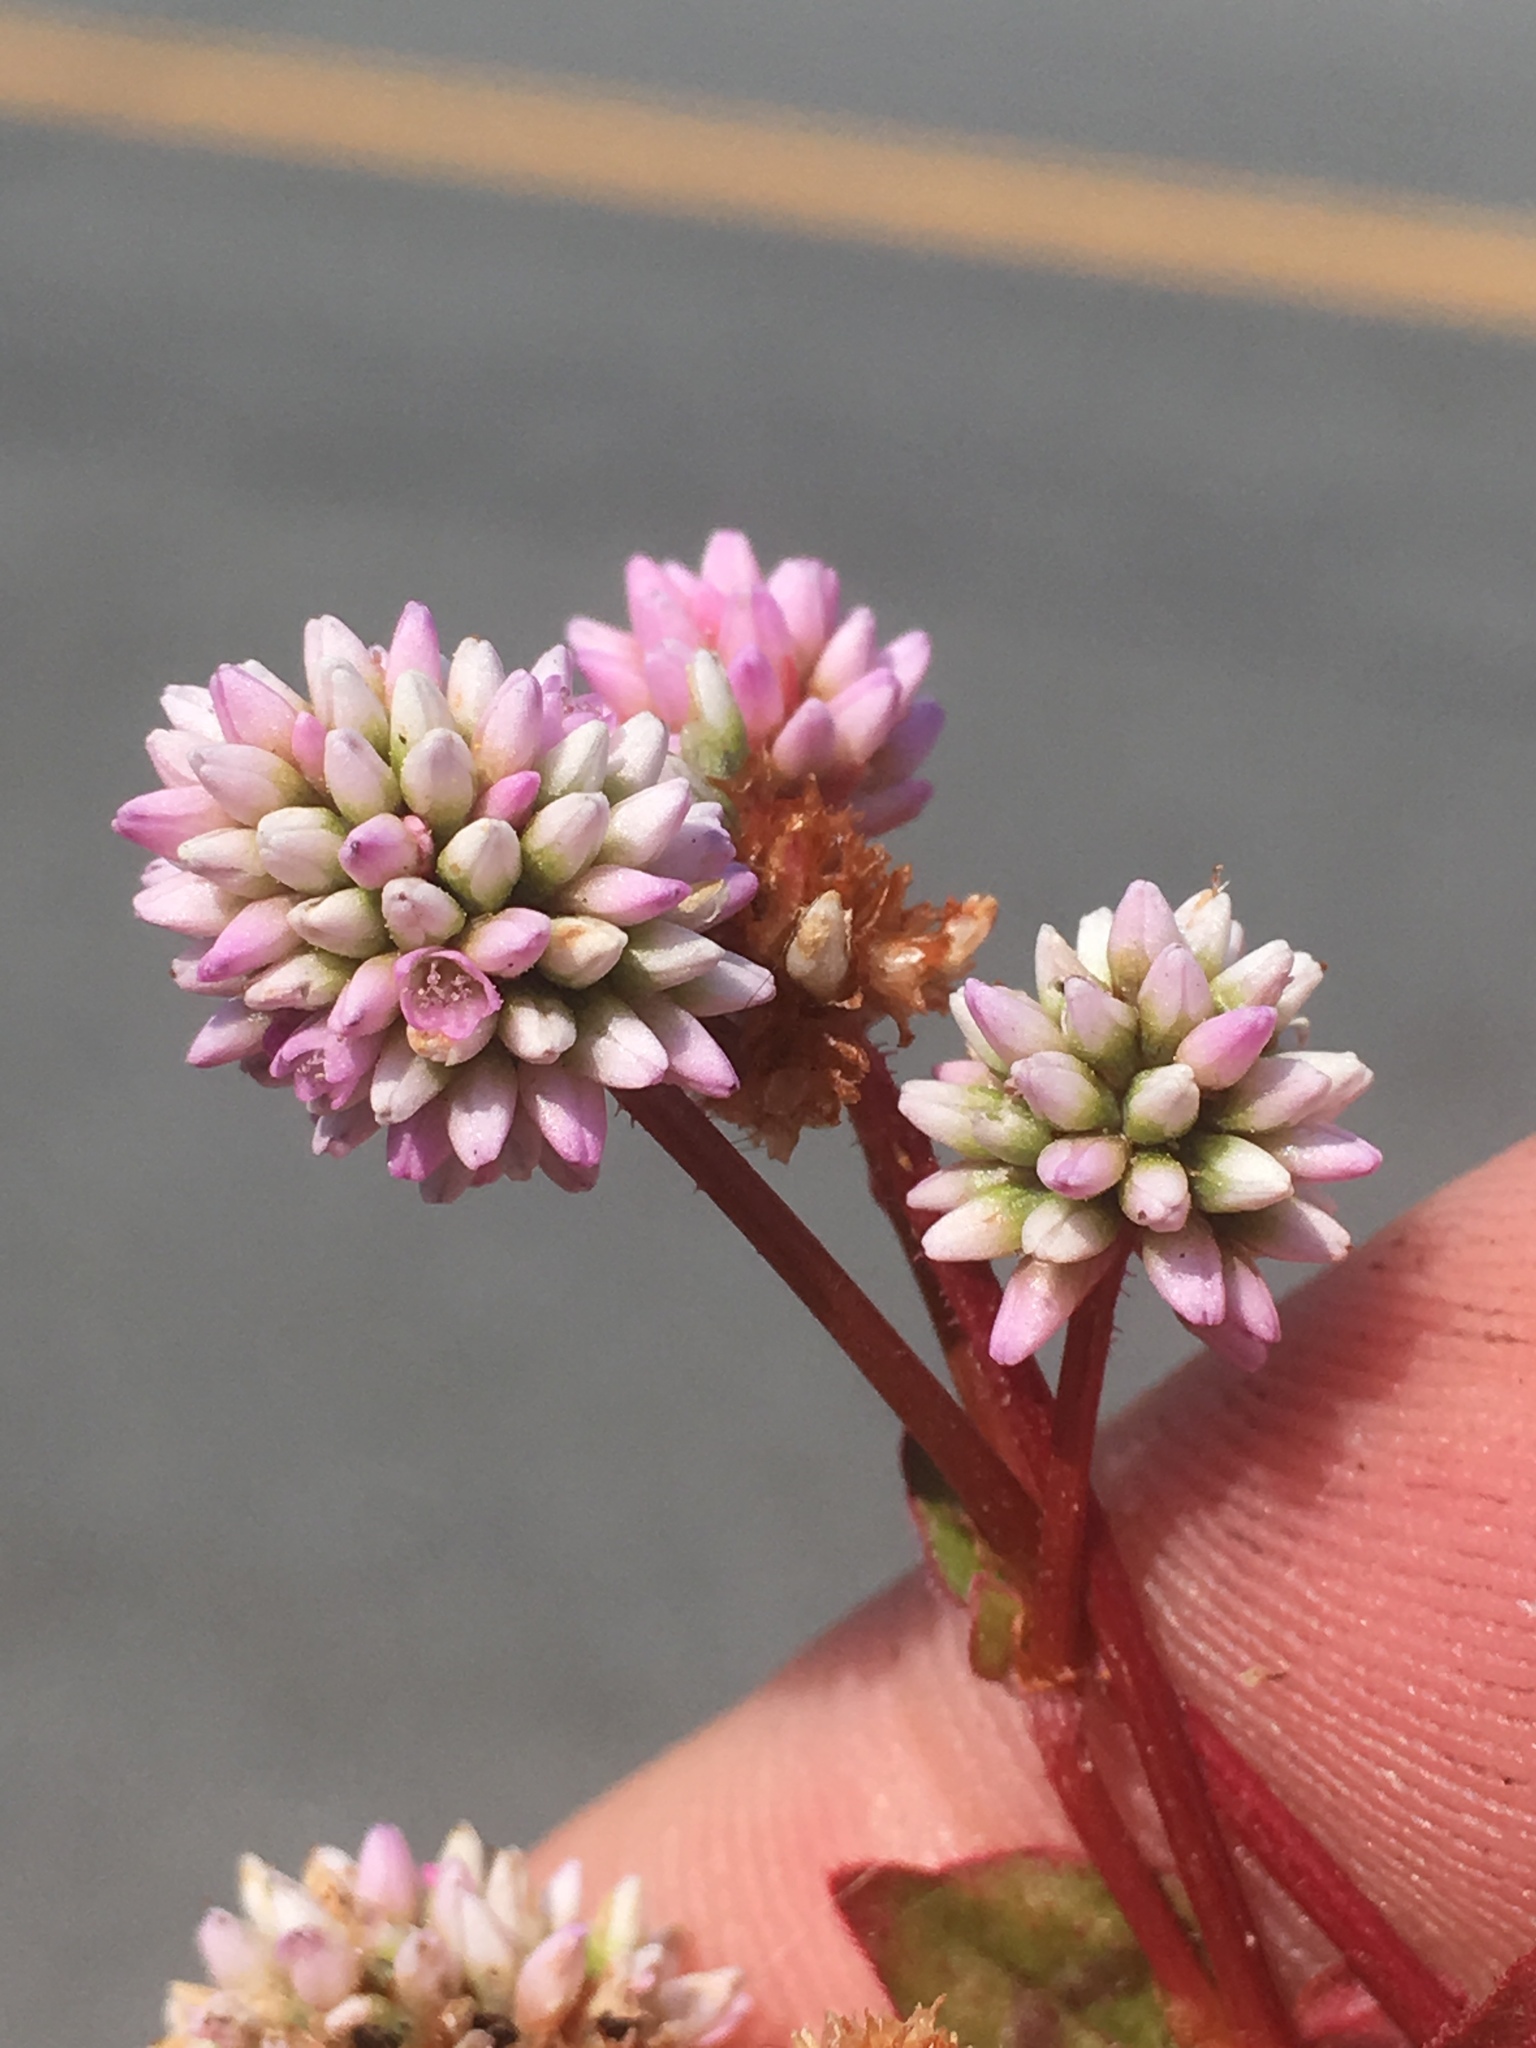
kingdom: Plantae
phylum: Tracheophyta
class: Magnoliopsida
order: Caryophyllales
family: Polygonaceae
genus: Persicaria
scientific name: Persicaria capitata
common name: Pinkhead smartweed
